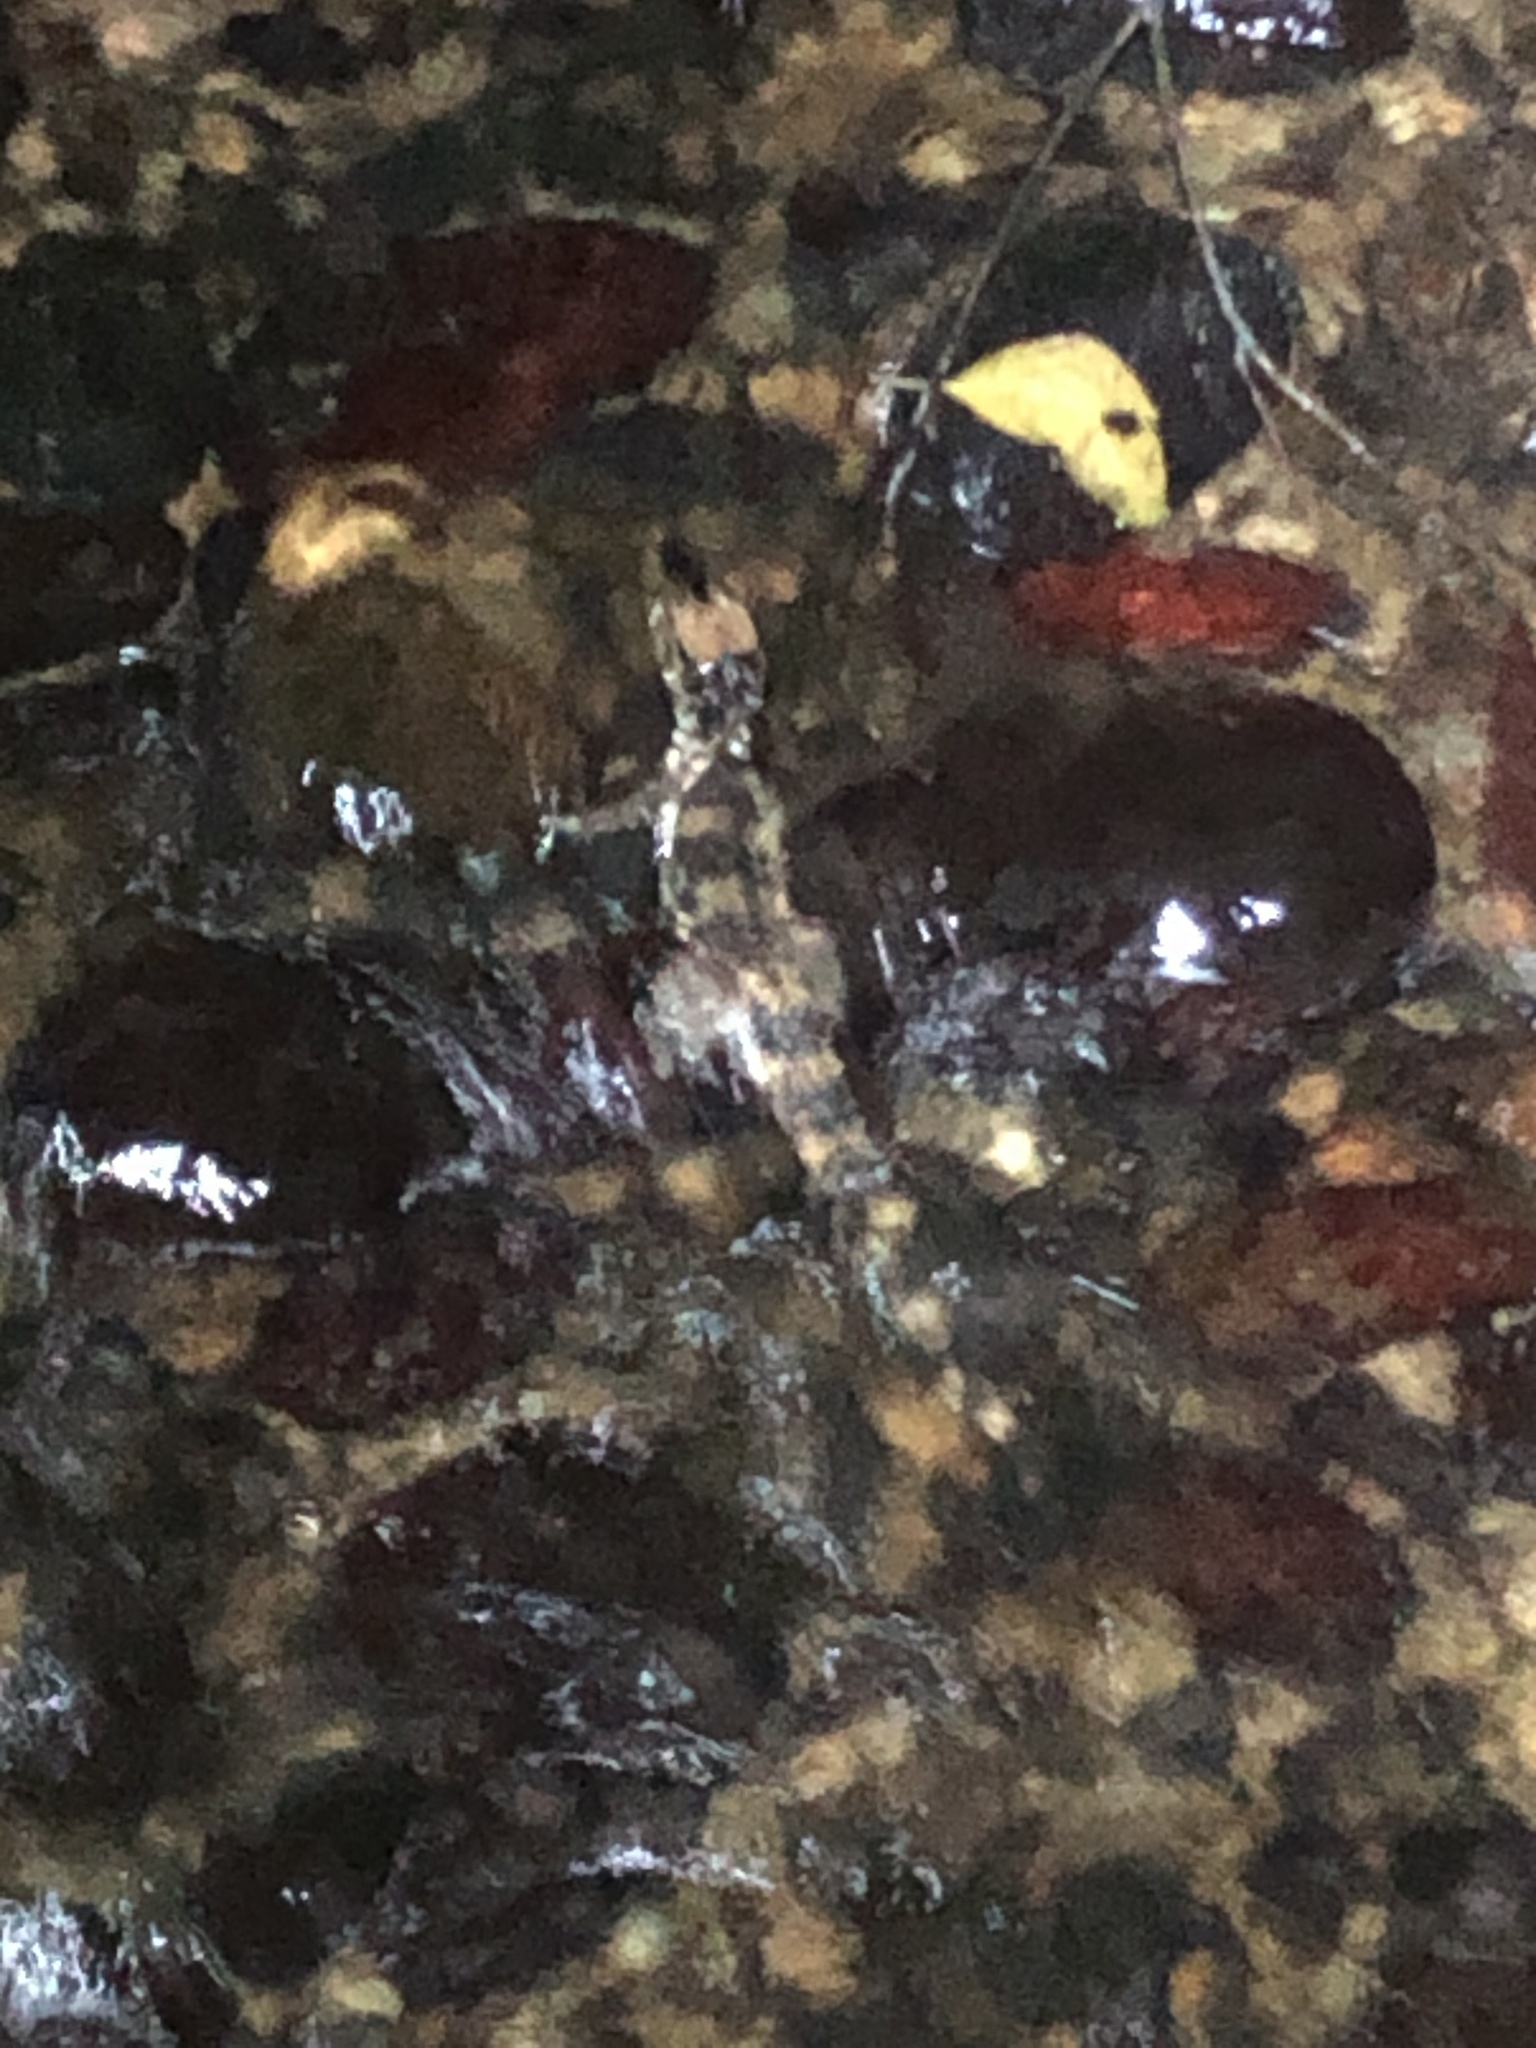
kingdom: Animalia
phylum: Chordata
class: Crocodylia
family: Alligatoridae
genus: Paleosuchus
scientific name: Paleosuchus trigonatus
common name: Schneider's smooth-fronted caiman
